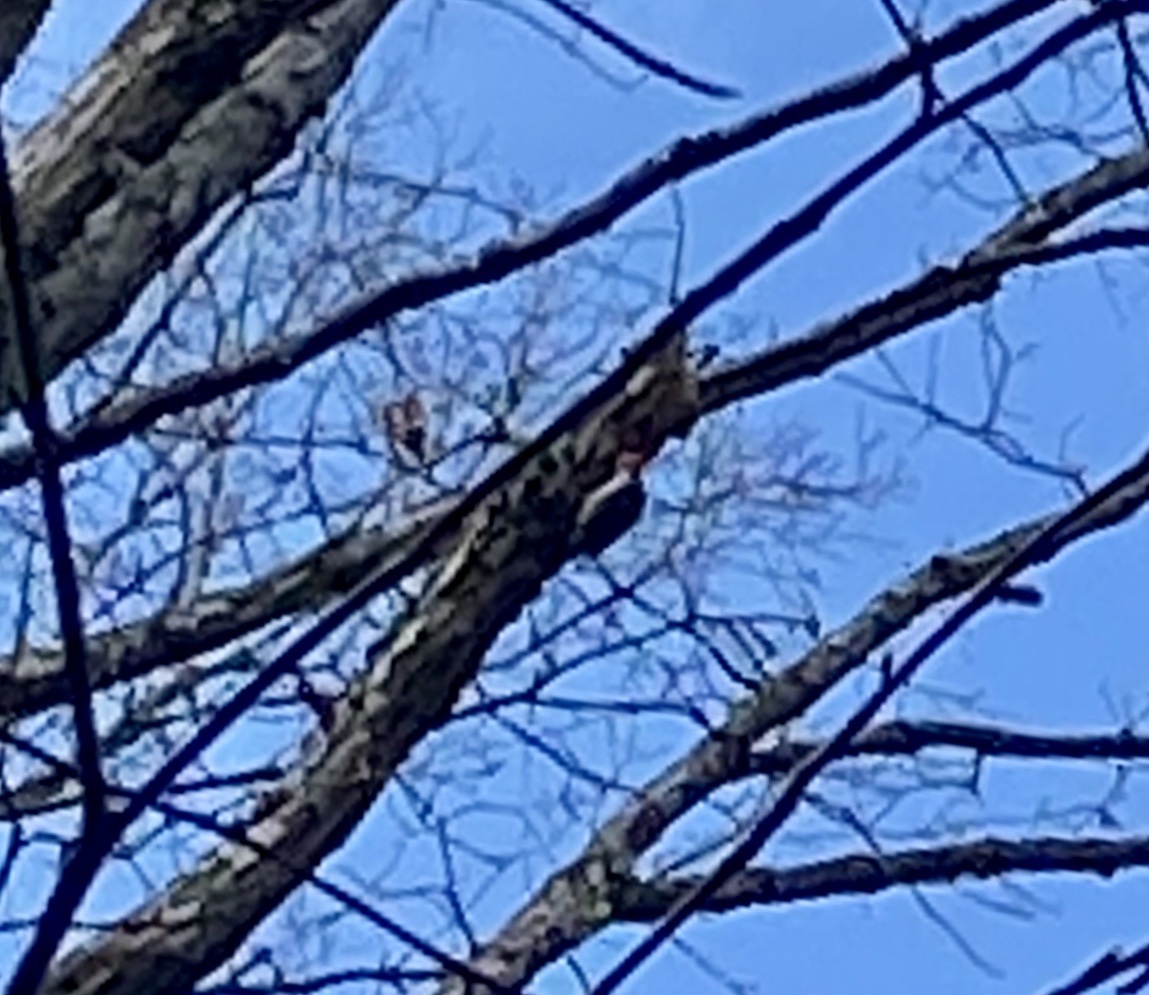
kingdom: Animalia
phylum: Chordata
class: Aves
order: Piciformes
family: Picidae
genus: Melanerpes
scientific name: Melanerpes carolinus
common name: Red-bellied woodpecker
